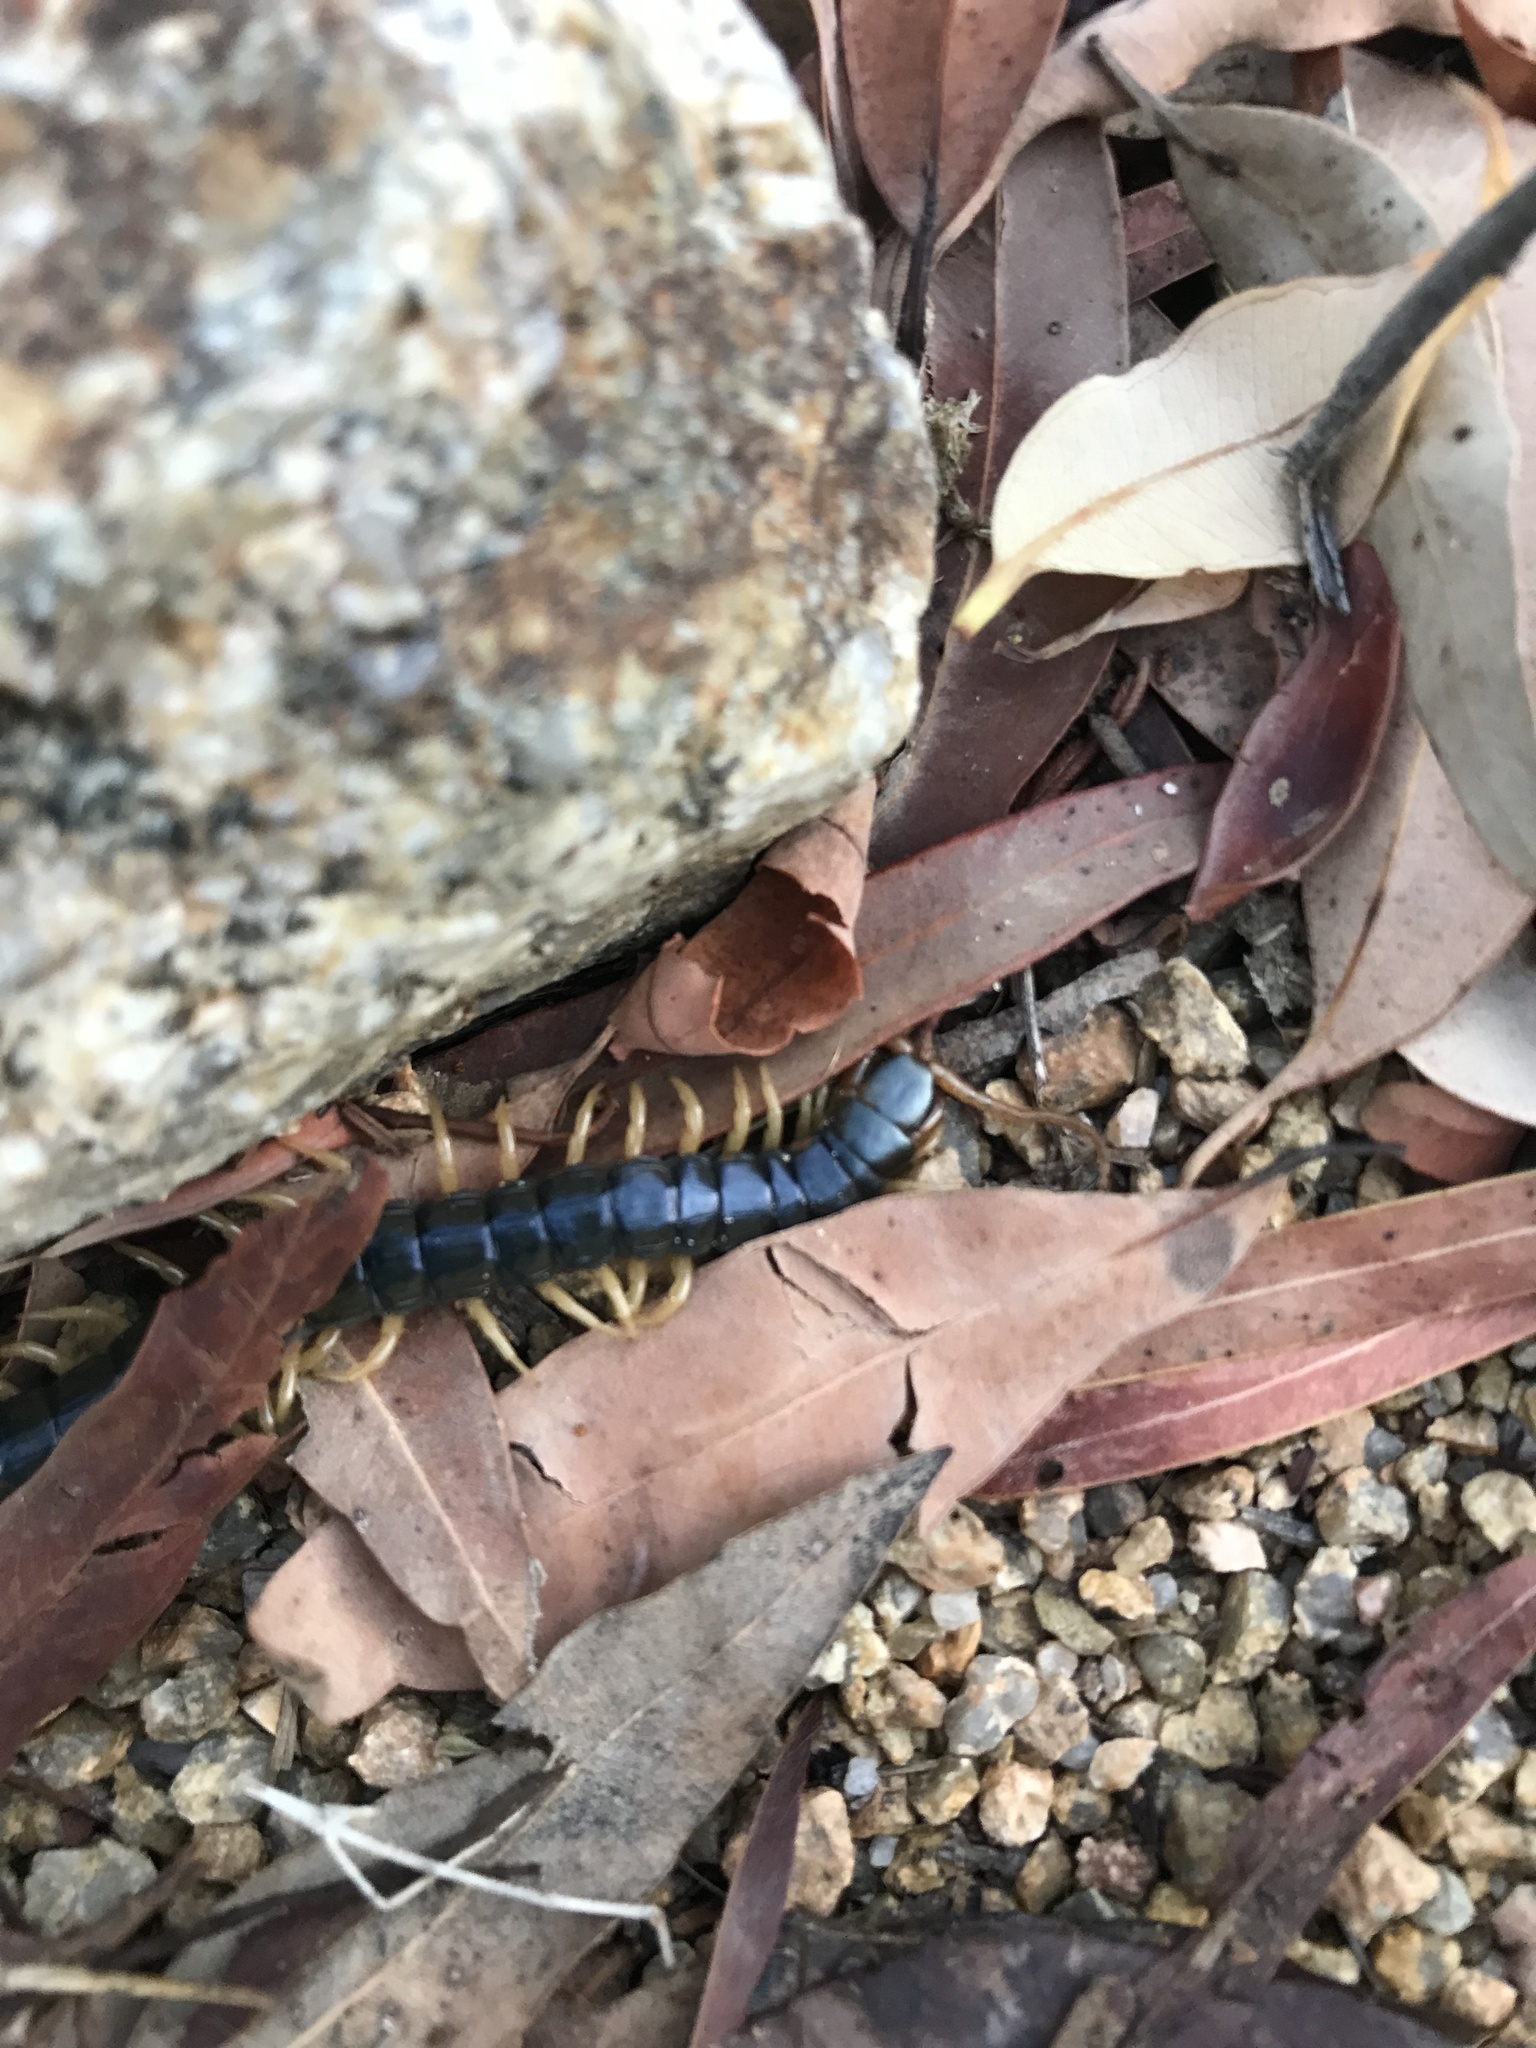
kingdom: Animalia
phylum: Arthropoda
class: Chilopoda
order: Scolopendromorpha
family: Scolopendridae
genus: Ethmostigmus
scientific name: Ethmostigmus rubripes
